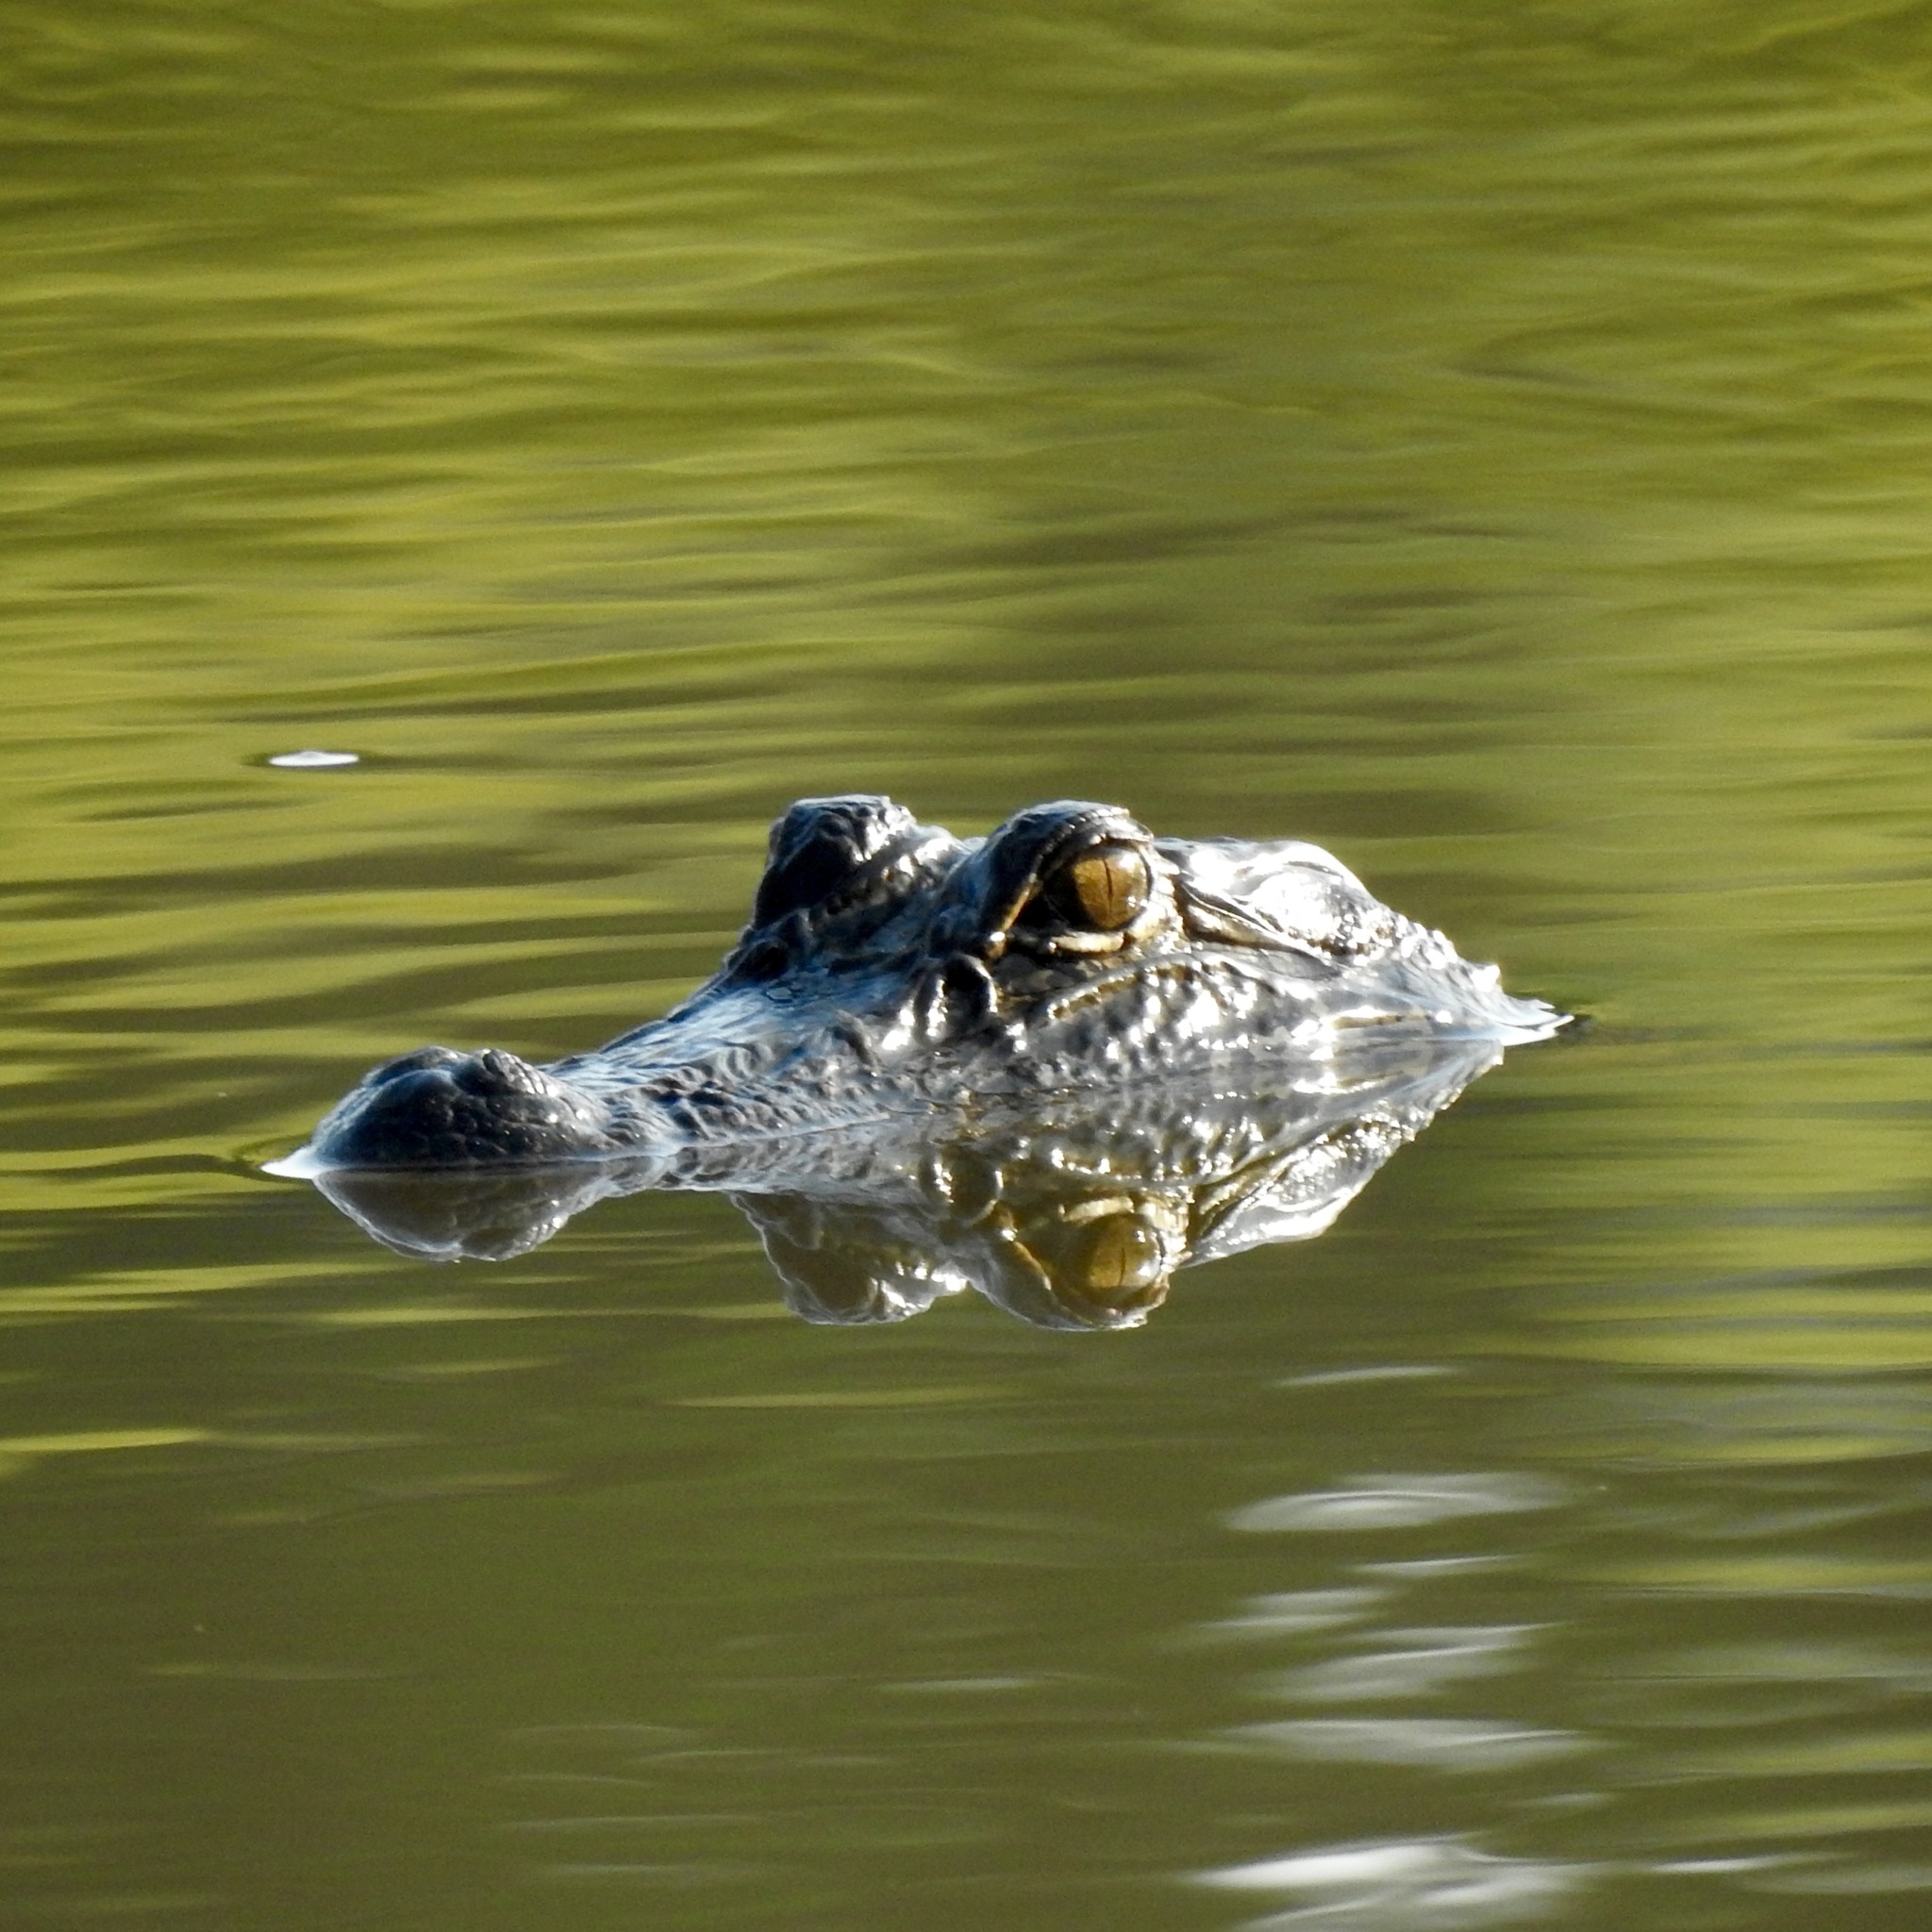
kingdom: Animalia
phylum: Chordata
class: Crocodylia
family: Alligatoridae
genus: Alligator
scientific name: Alligator mississippiensis
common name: American alligator
